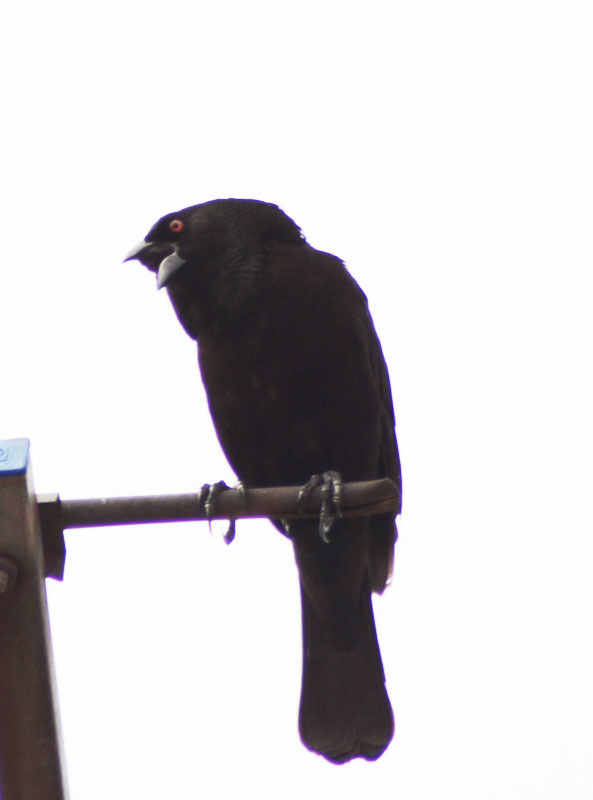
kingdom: Animalia
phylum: Chordata
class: Aves
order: Passeriformes
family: Icteridae
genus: Molothrus
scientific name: Molothrus aeneus
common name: Bronzed cowbird
